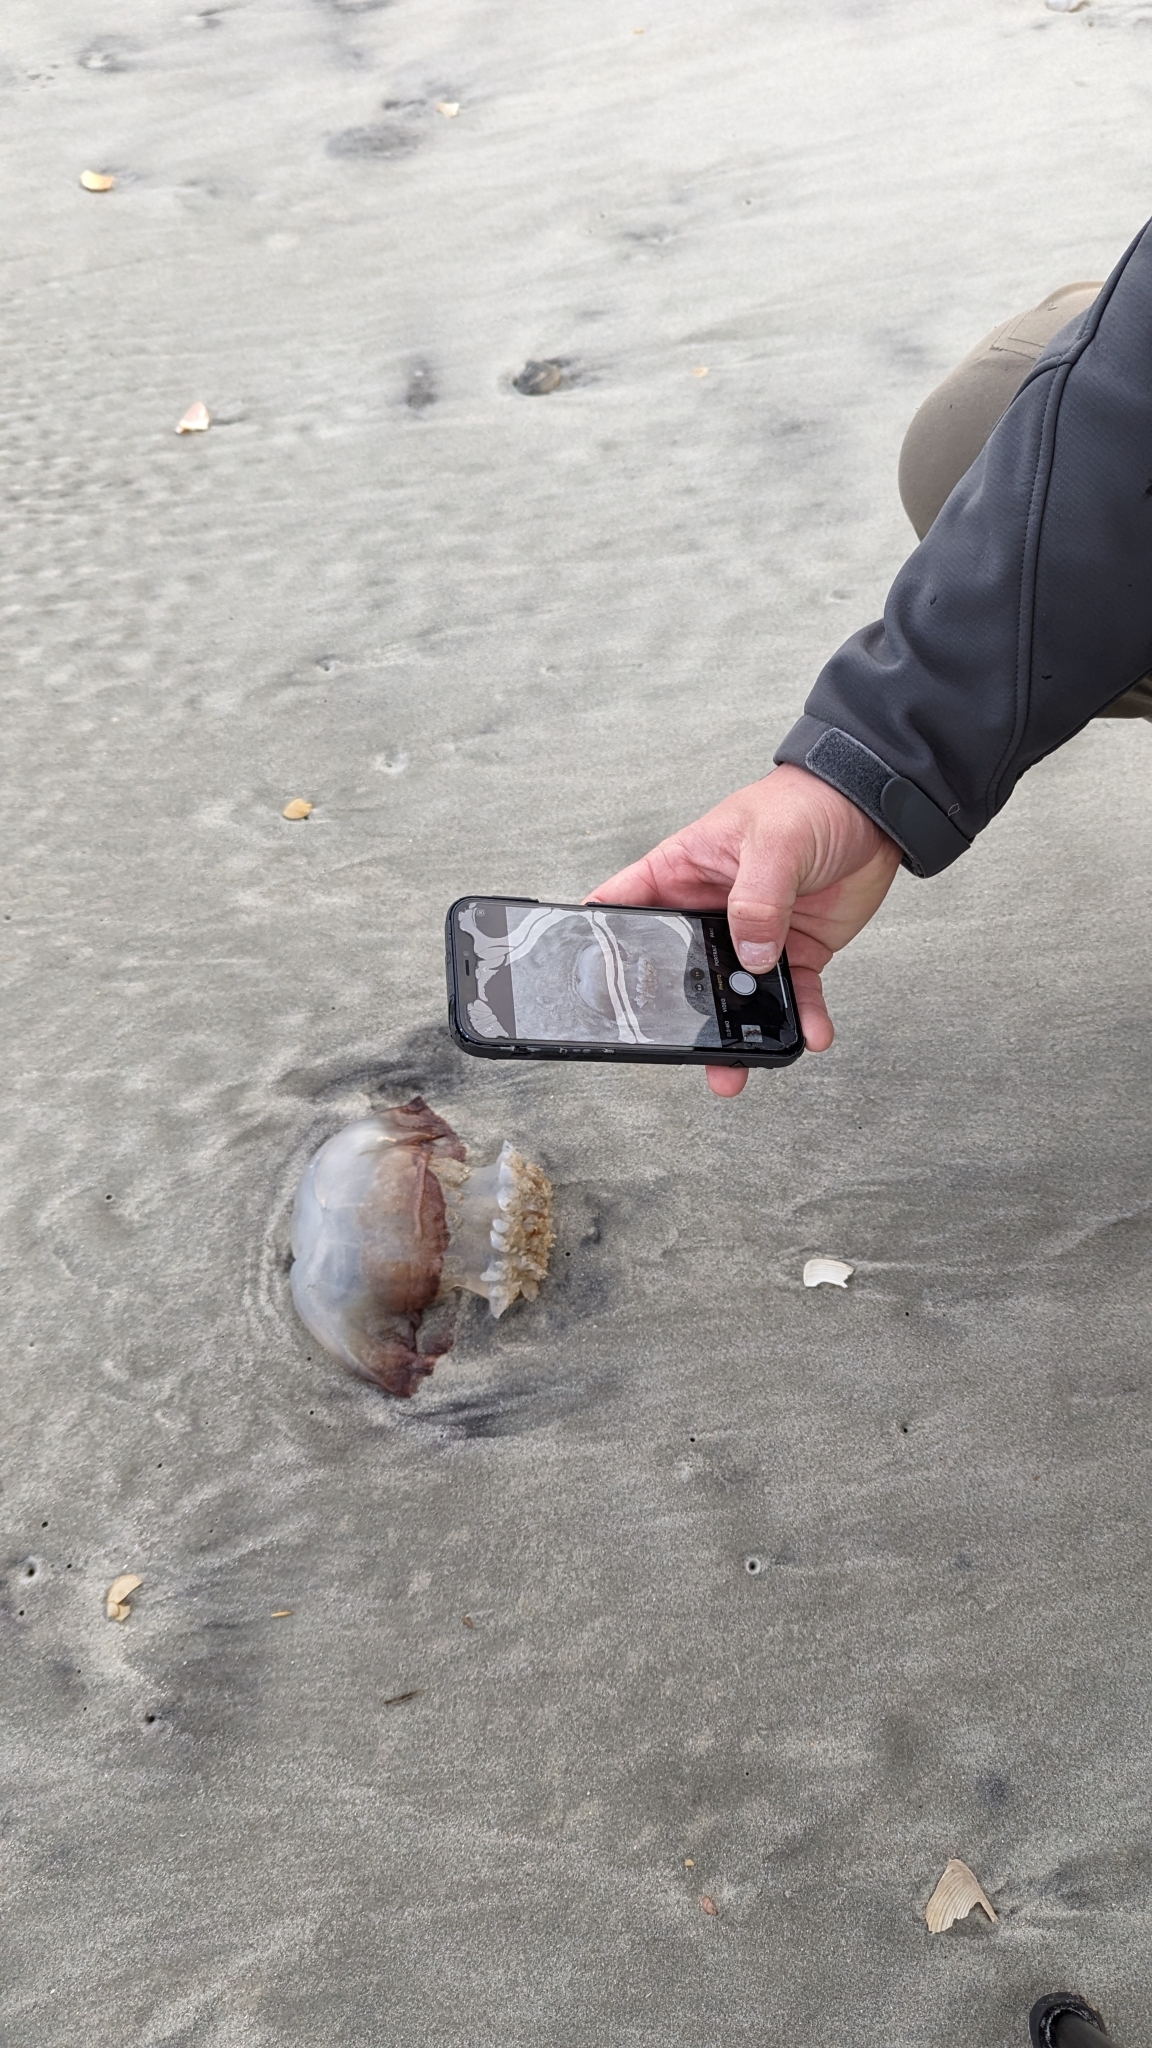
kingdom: Animalia
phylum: Cnidaria
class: Scyphozoa
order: Rhizostomeae
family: Stomolophidae
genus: Stomolophus
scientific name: Stomolophus meleagris
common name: Cabbagehead
